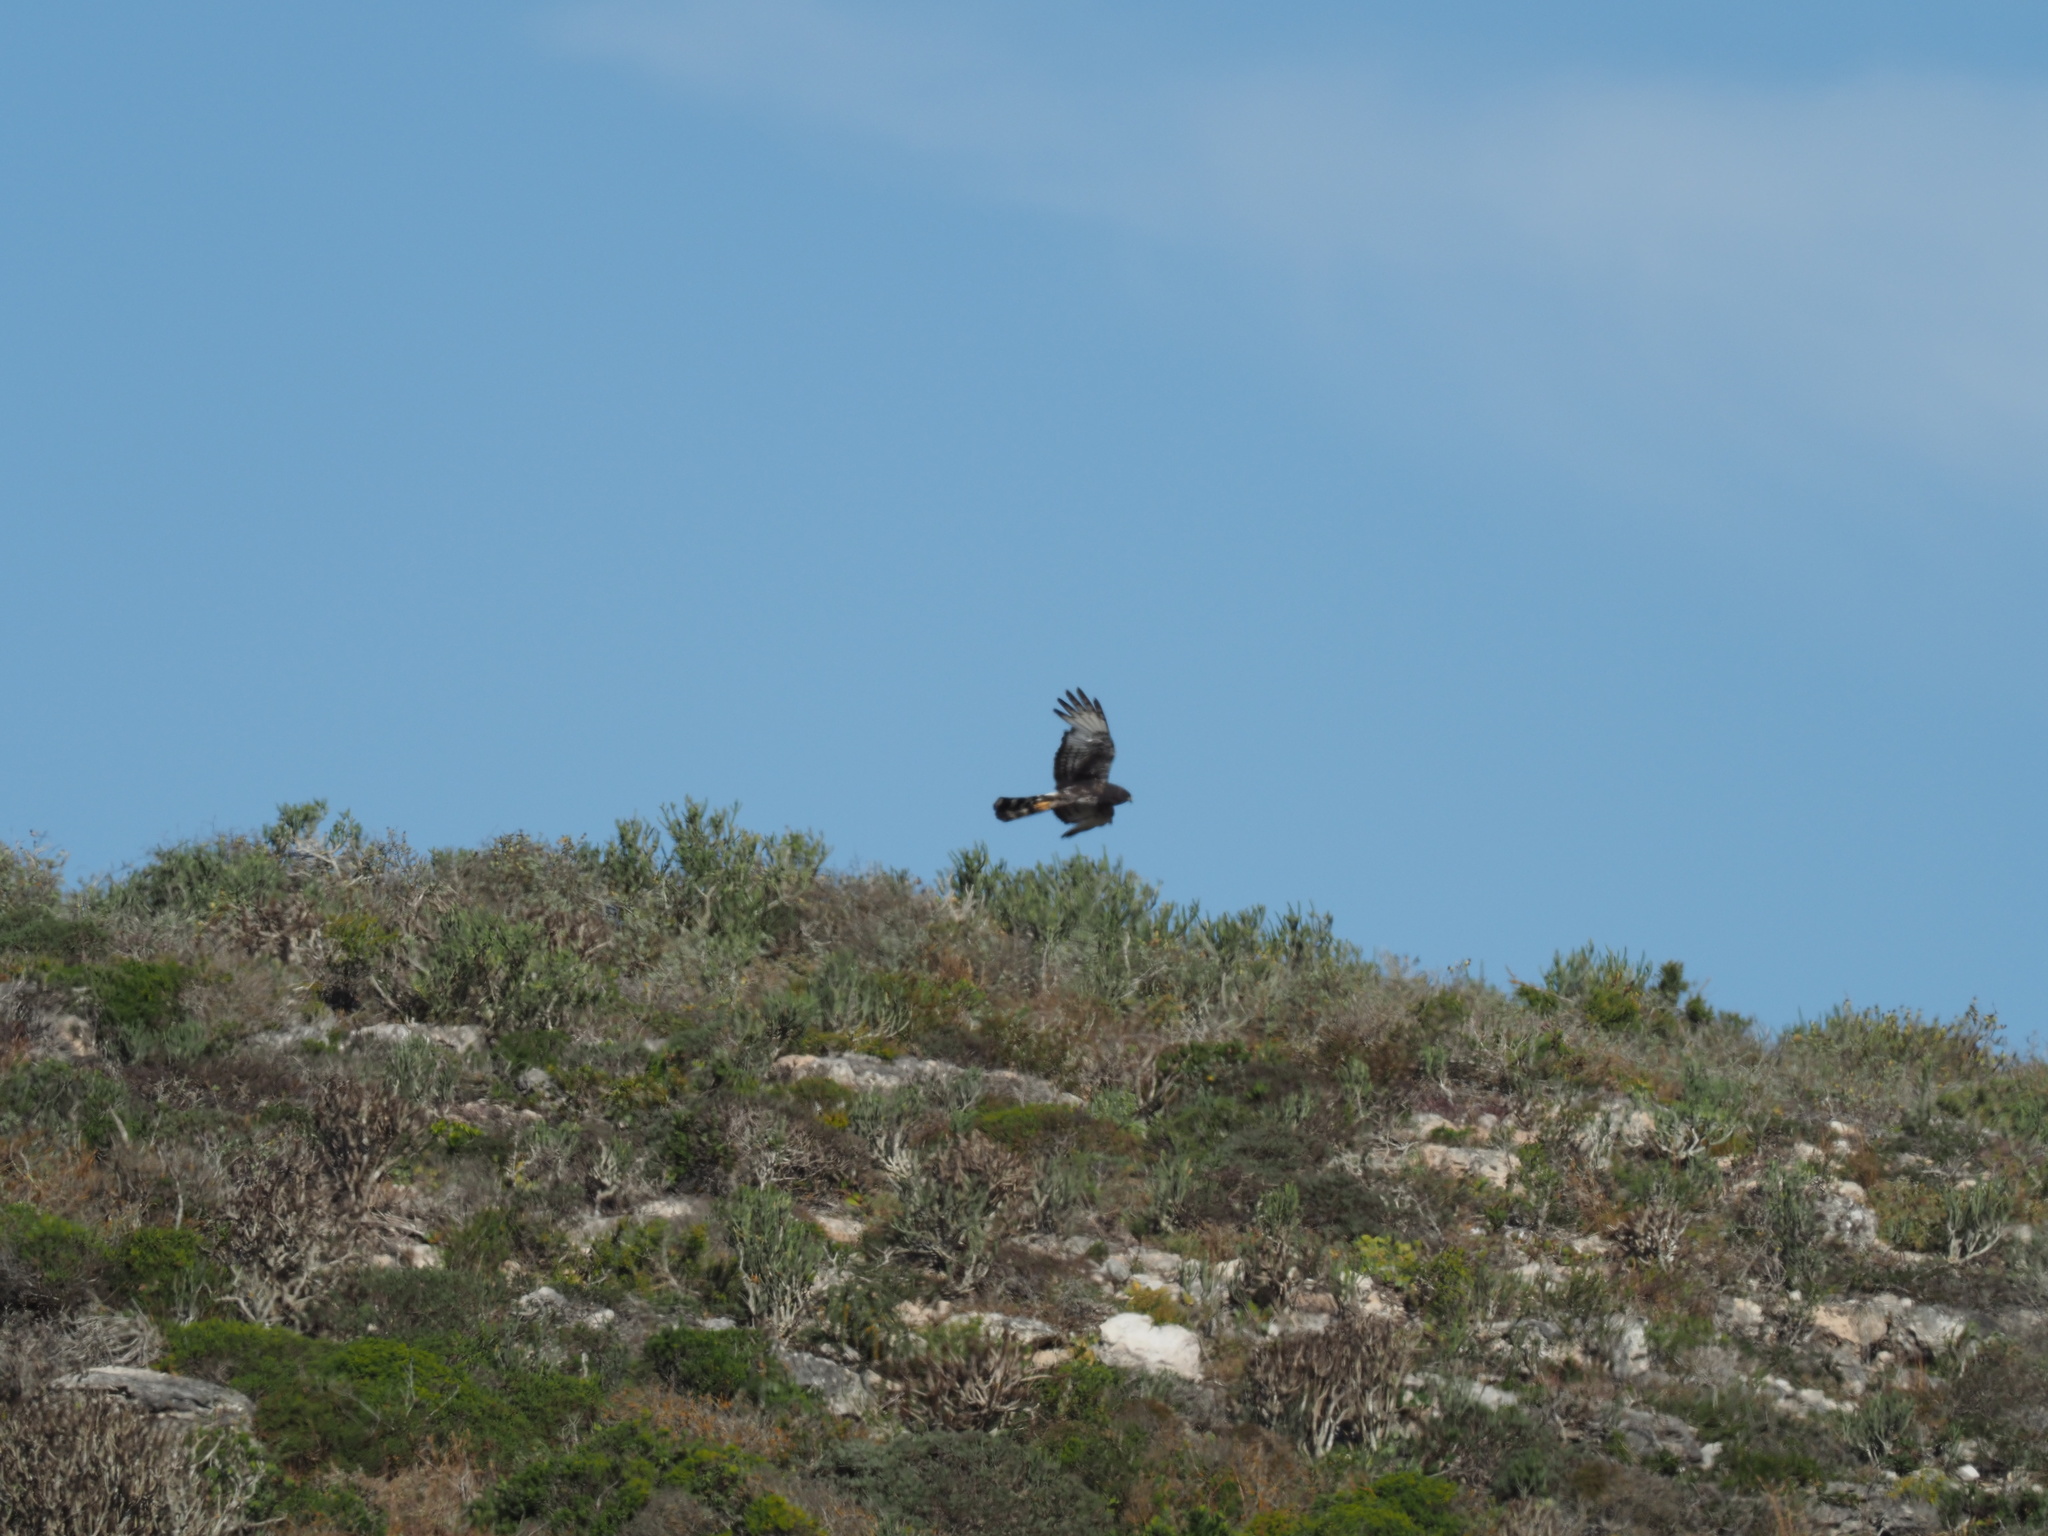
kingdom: Animalia
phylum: Chordata
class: Aves
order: Accipitriformes
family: Accipitridae
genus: Circus
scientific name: Circus maurus
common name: Black harrier
